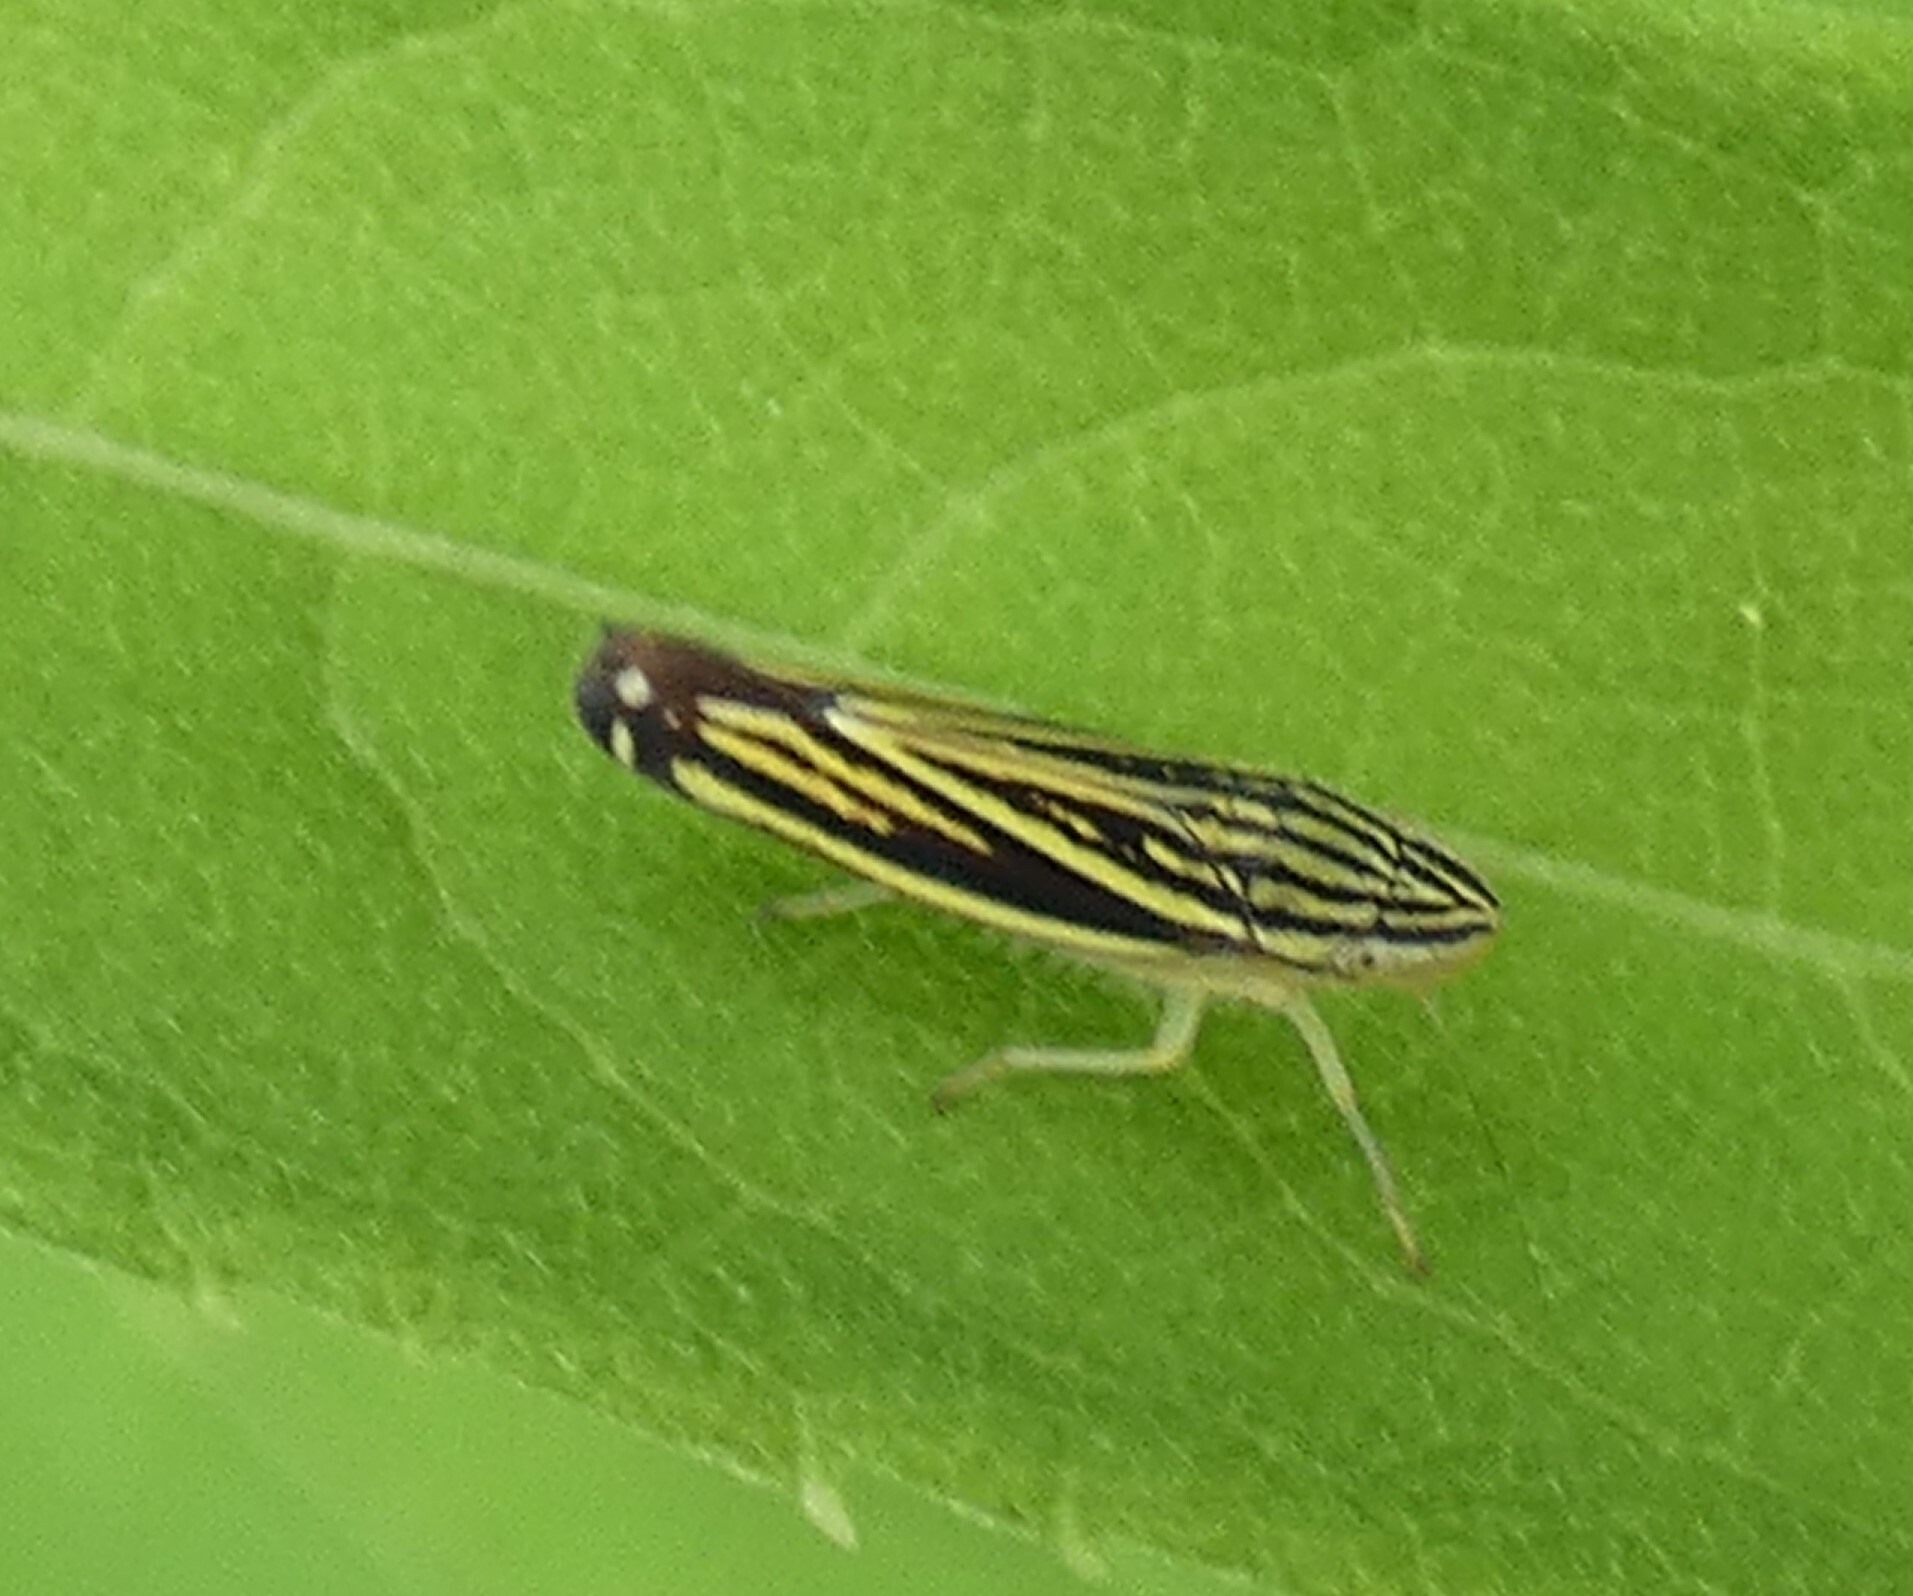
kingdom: Animalia
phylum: Arthropoda
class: Insecta
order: Hemiptera
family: Cicadellidae
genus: Sibovia
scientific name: Sibovia occatoria
